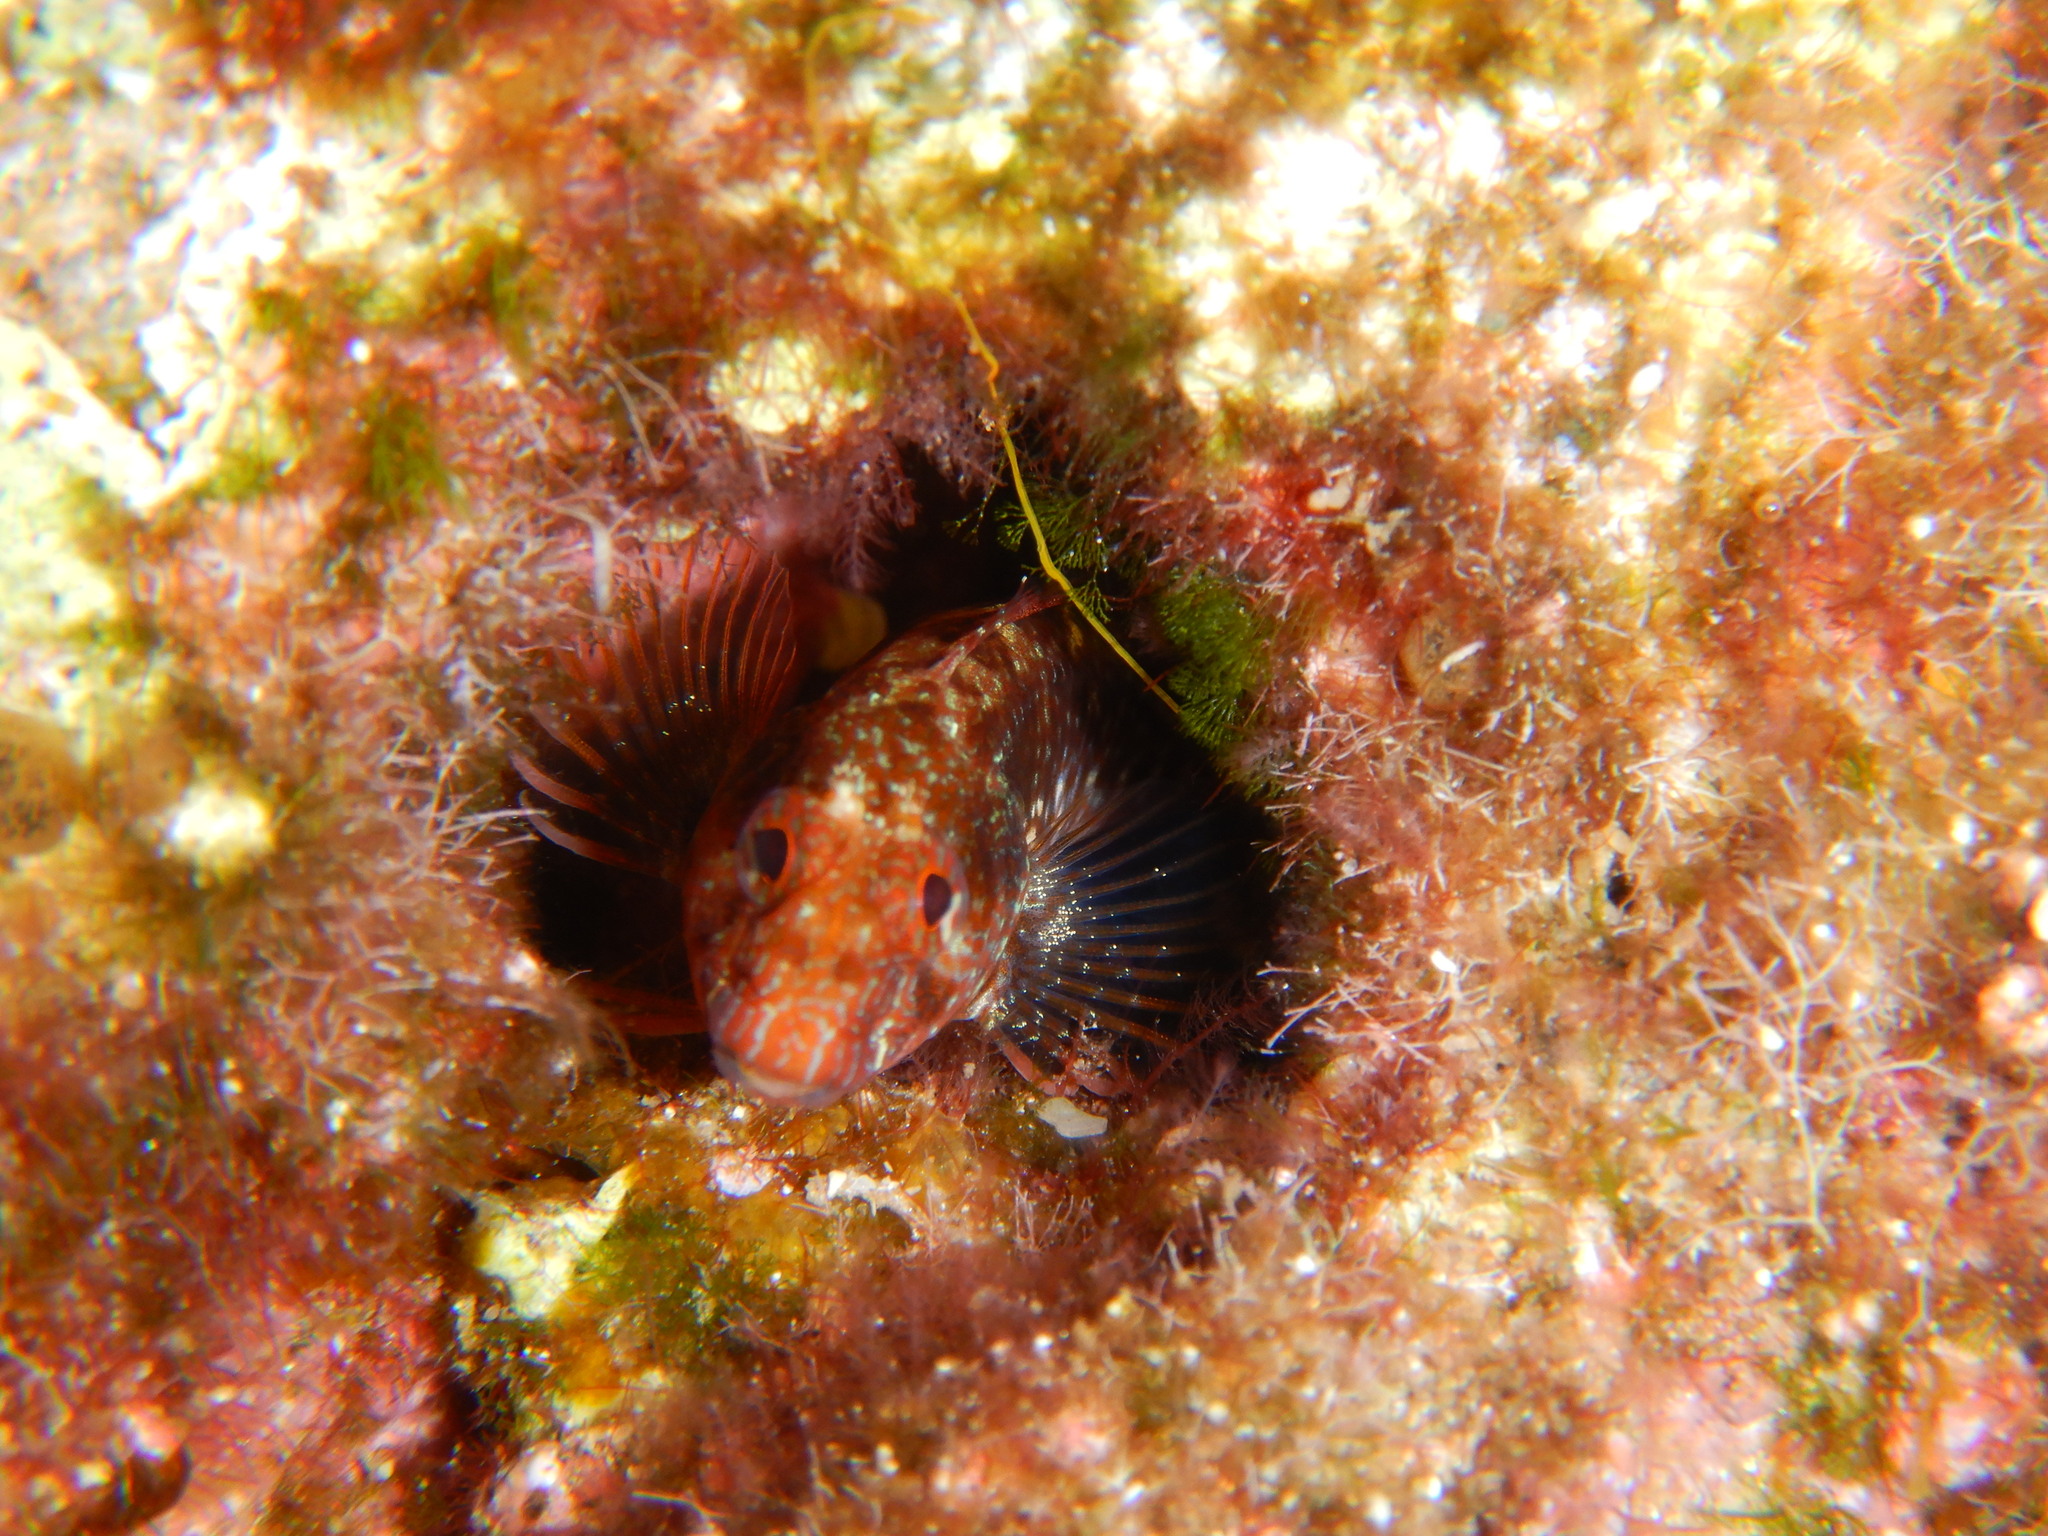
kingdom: Animalia
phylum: Chordata
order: Perciformes
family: Blenniidae
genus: Parablennius
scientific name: Parablennius zvonimiri
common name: Red blenny
